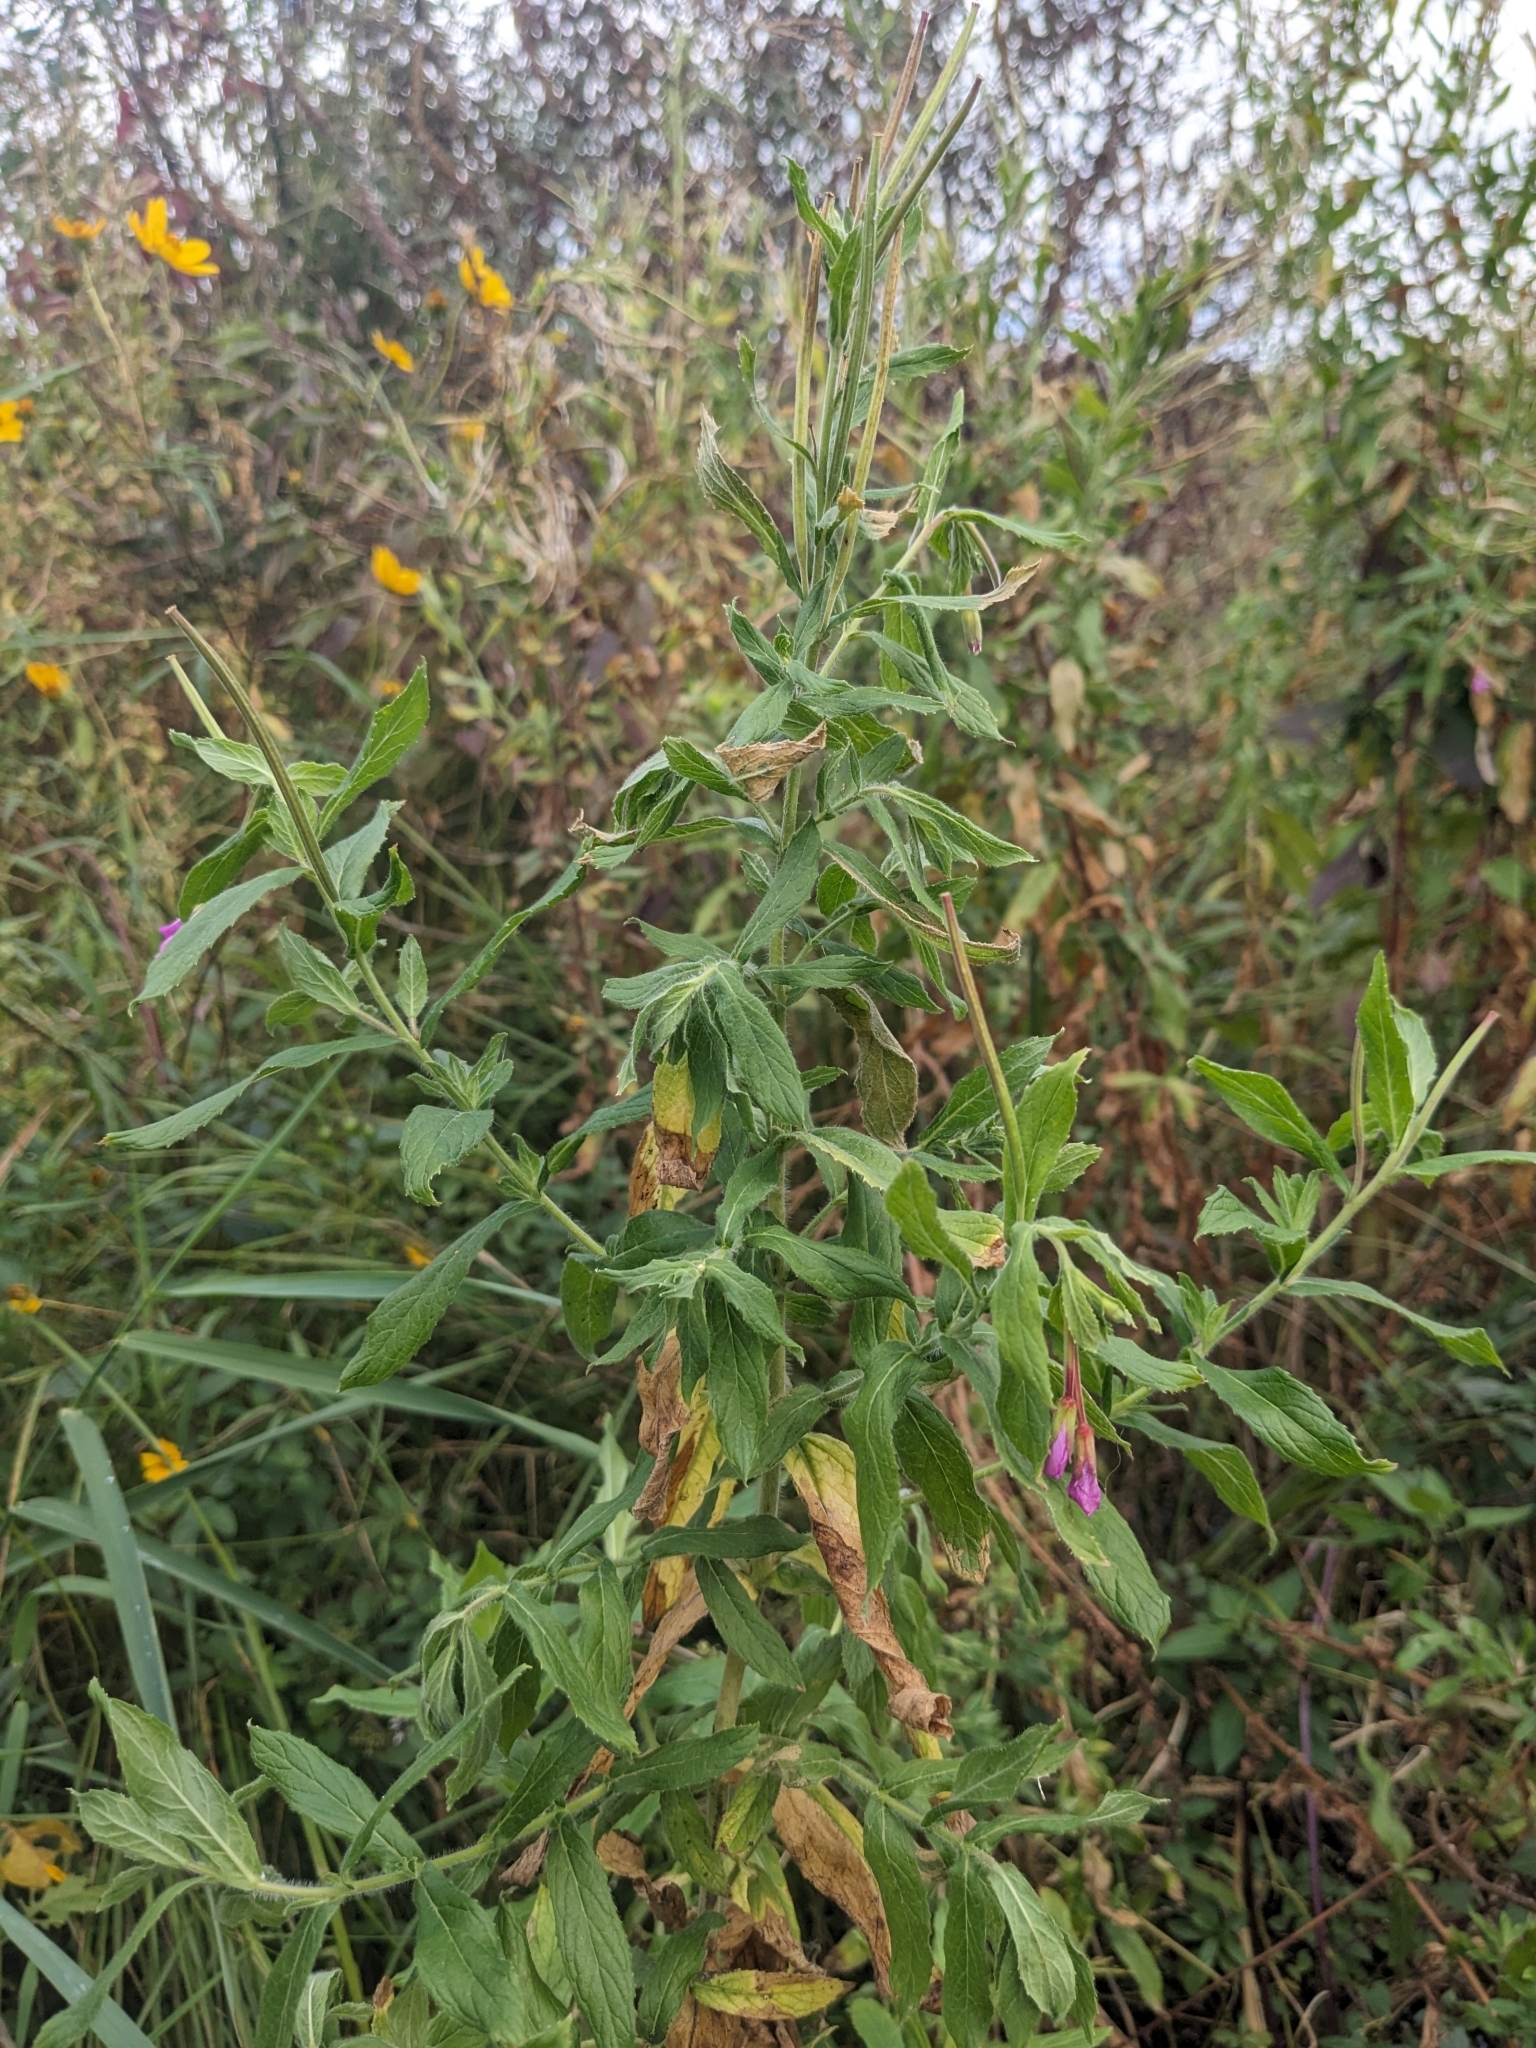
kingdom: Plantae
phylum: Tracheophyta
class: Magnoliopsida
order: Myrtales
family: Onagraceae
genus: Epilobium
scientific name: Epilobium hirsutum
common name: Great willowherb
